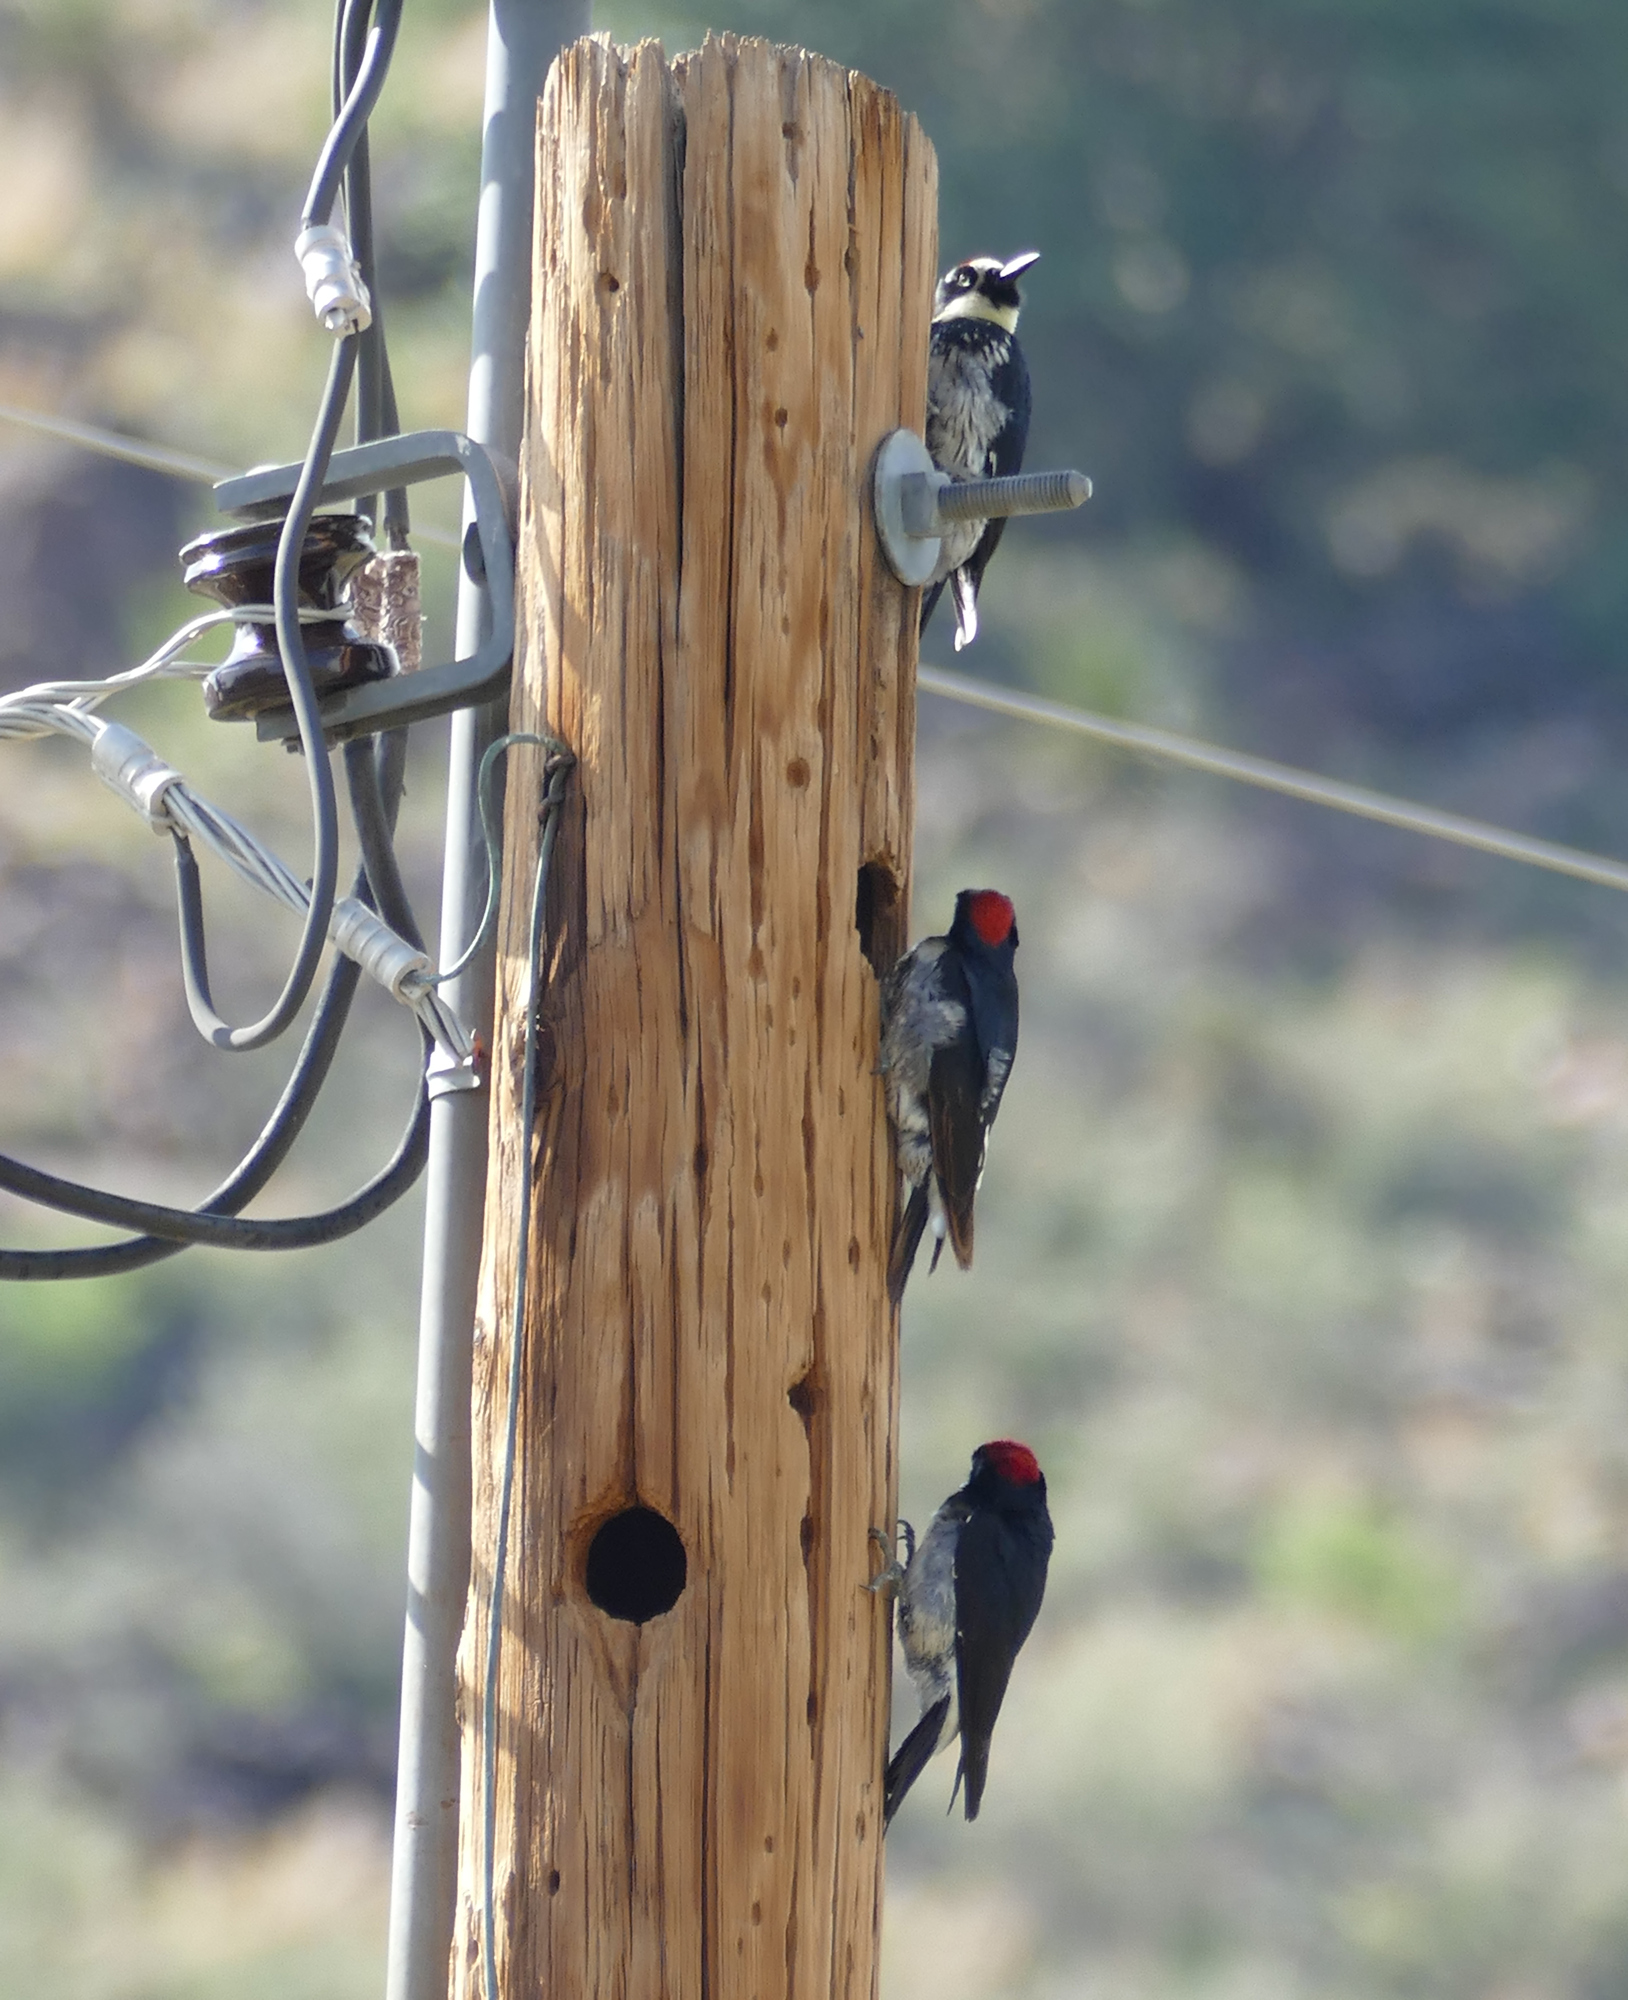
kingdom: Animalia
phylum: Chordata
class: Aves
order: Piciformes
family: Picidae
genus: Melanerpes
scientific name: Melanerpes formicivorus
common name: Acorn woodpecker
